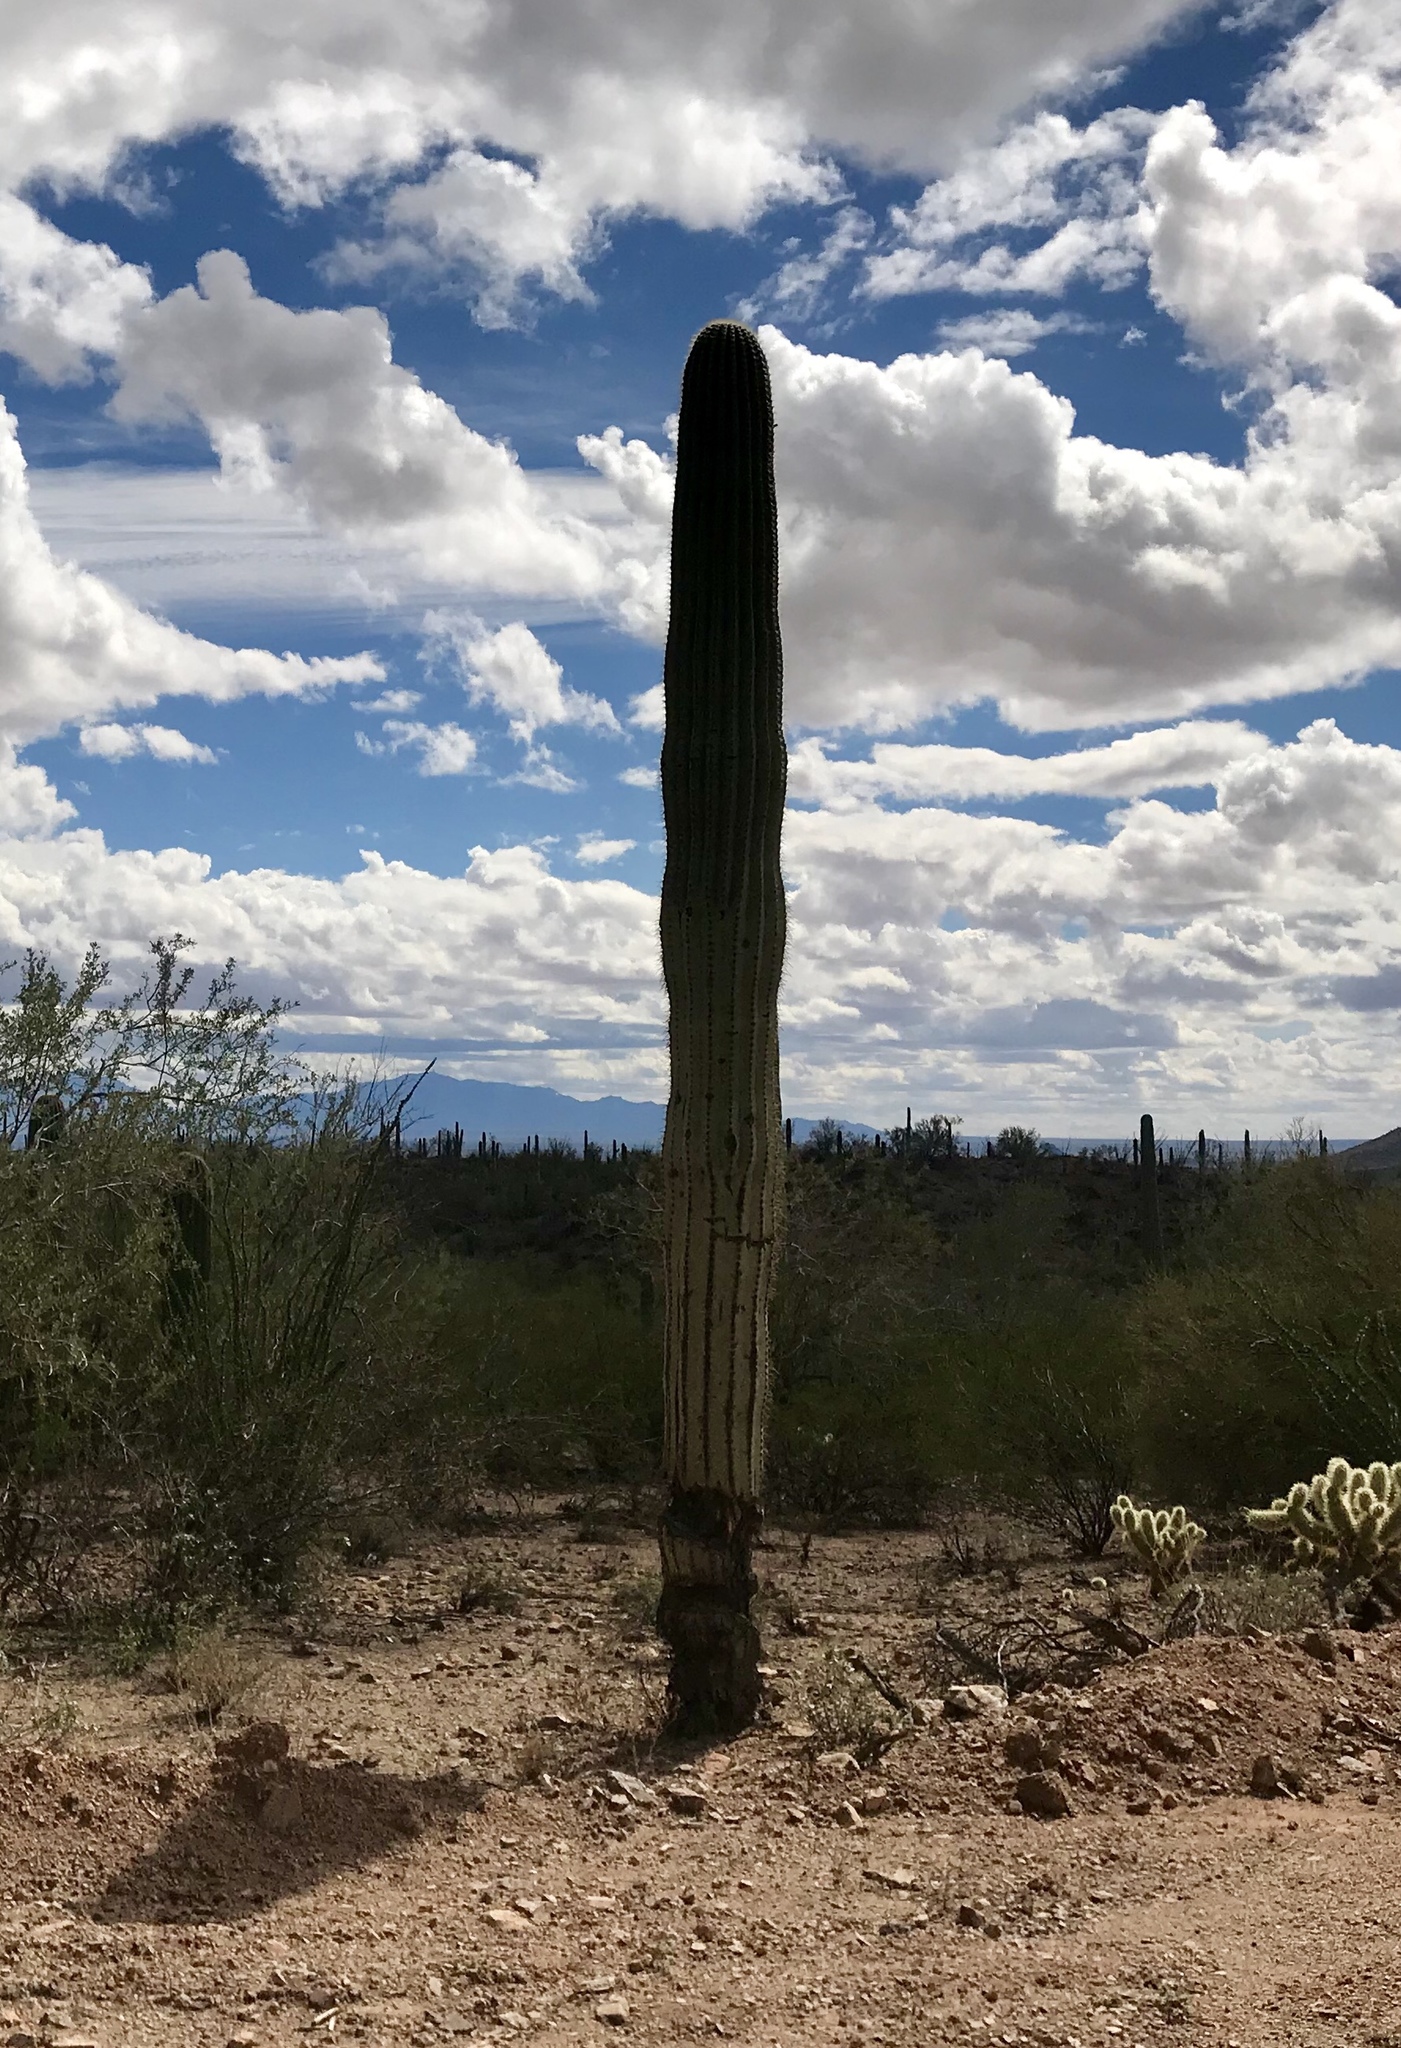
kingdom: Plantae
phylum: Tracheophyta
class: Magnoliopsida
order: Caryophyllales
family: Cactaceae
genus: Carnegiea
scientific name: Carnegiea gigantea
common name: Saguaro
